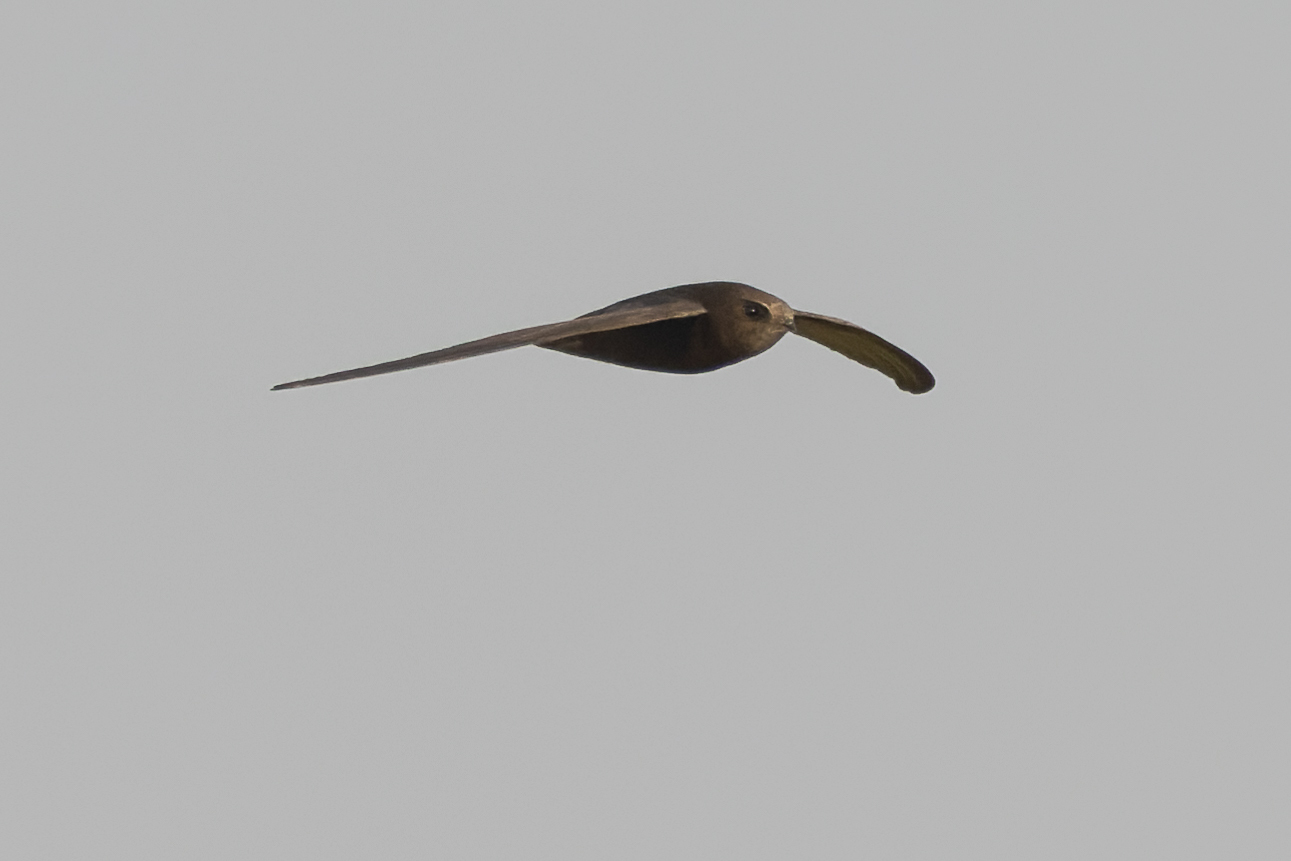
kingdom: Animalia
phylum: Chordata
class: Aves
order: Apodiformes
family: Apodidae
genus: Apus
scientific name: Apus pallidus
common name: Pallid swift
